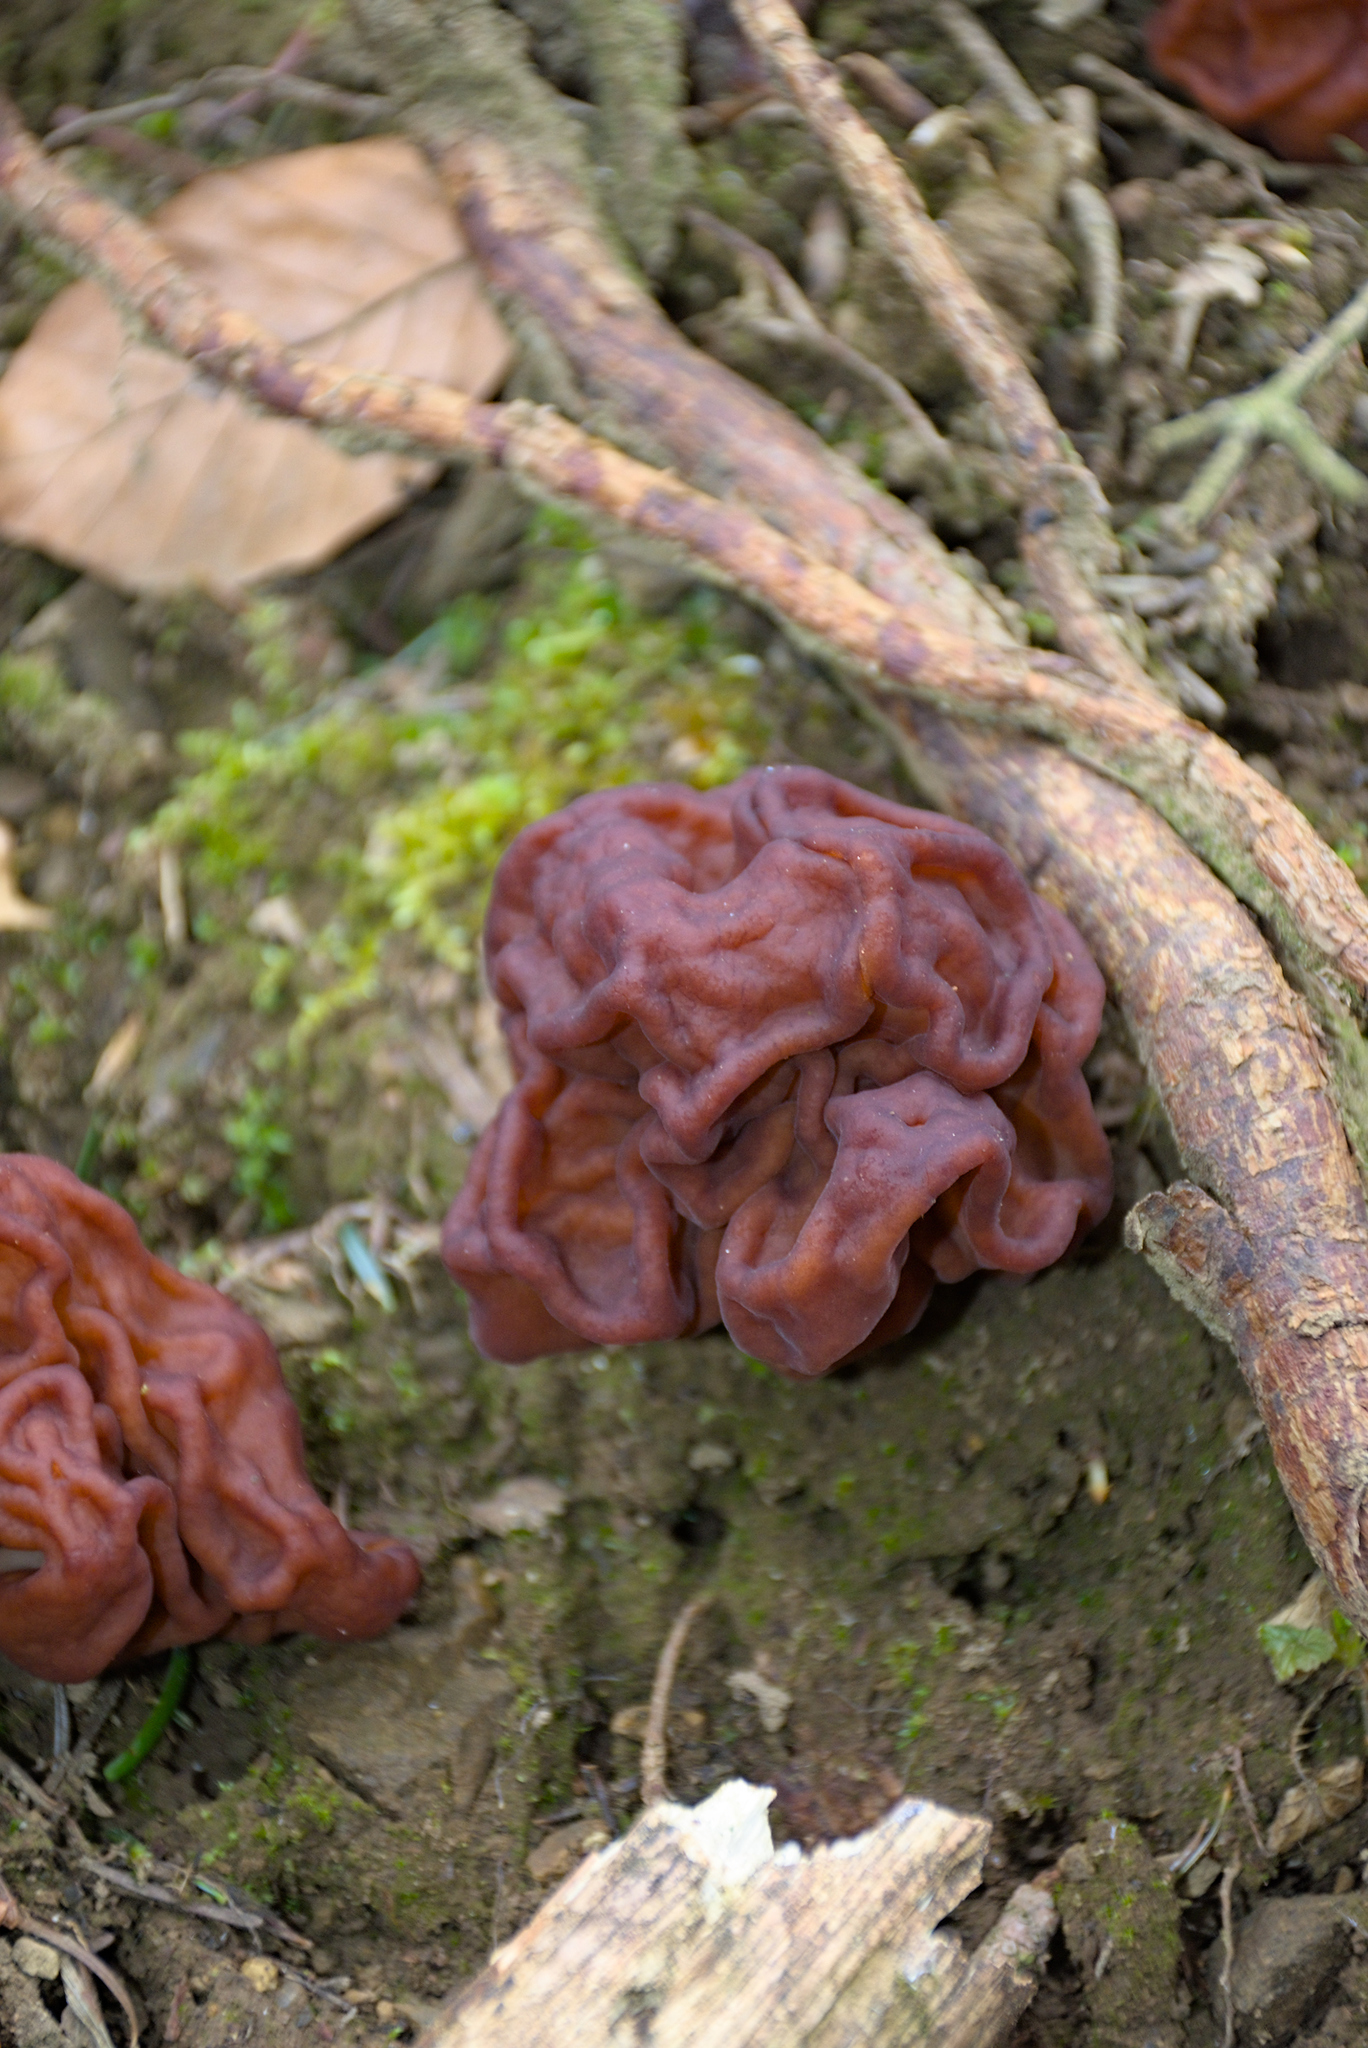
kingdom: Fungi
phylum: Ascomycota
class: Pezizomycetes
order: Pezizales
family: Discinaceae
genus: Gyromitra
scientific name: Gyromitra esculenta
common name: False morel
